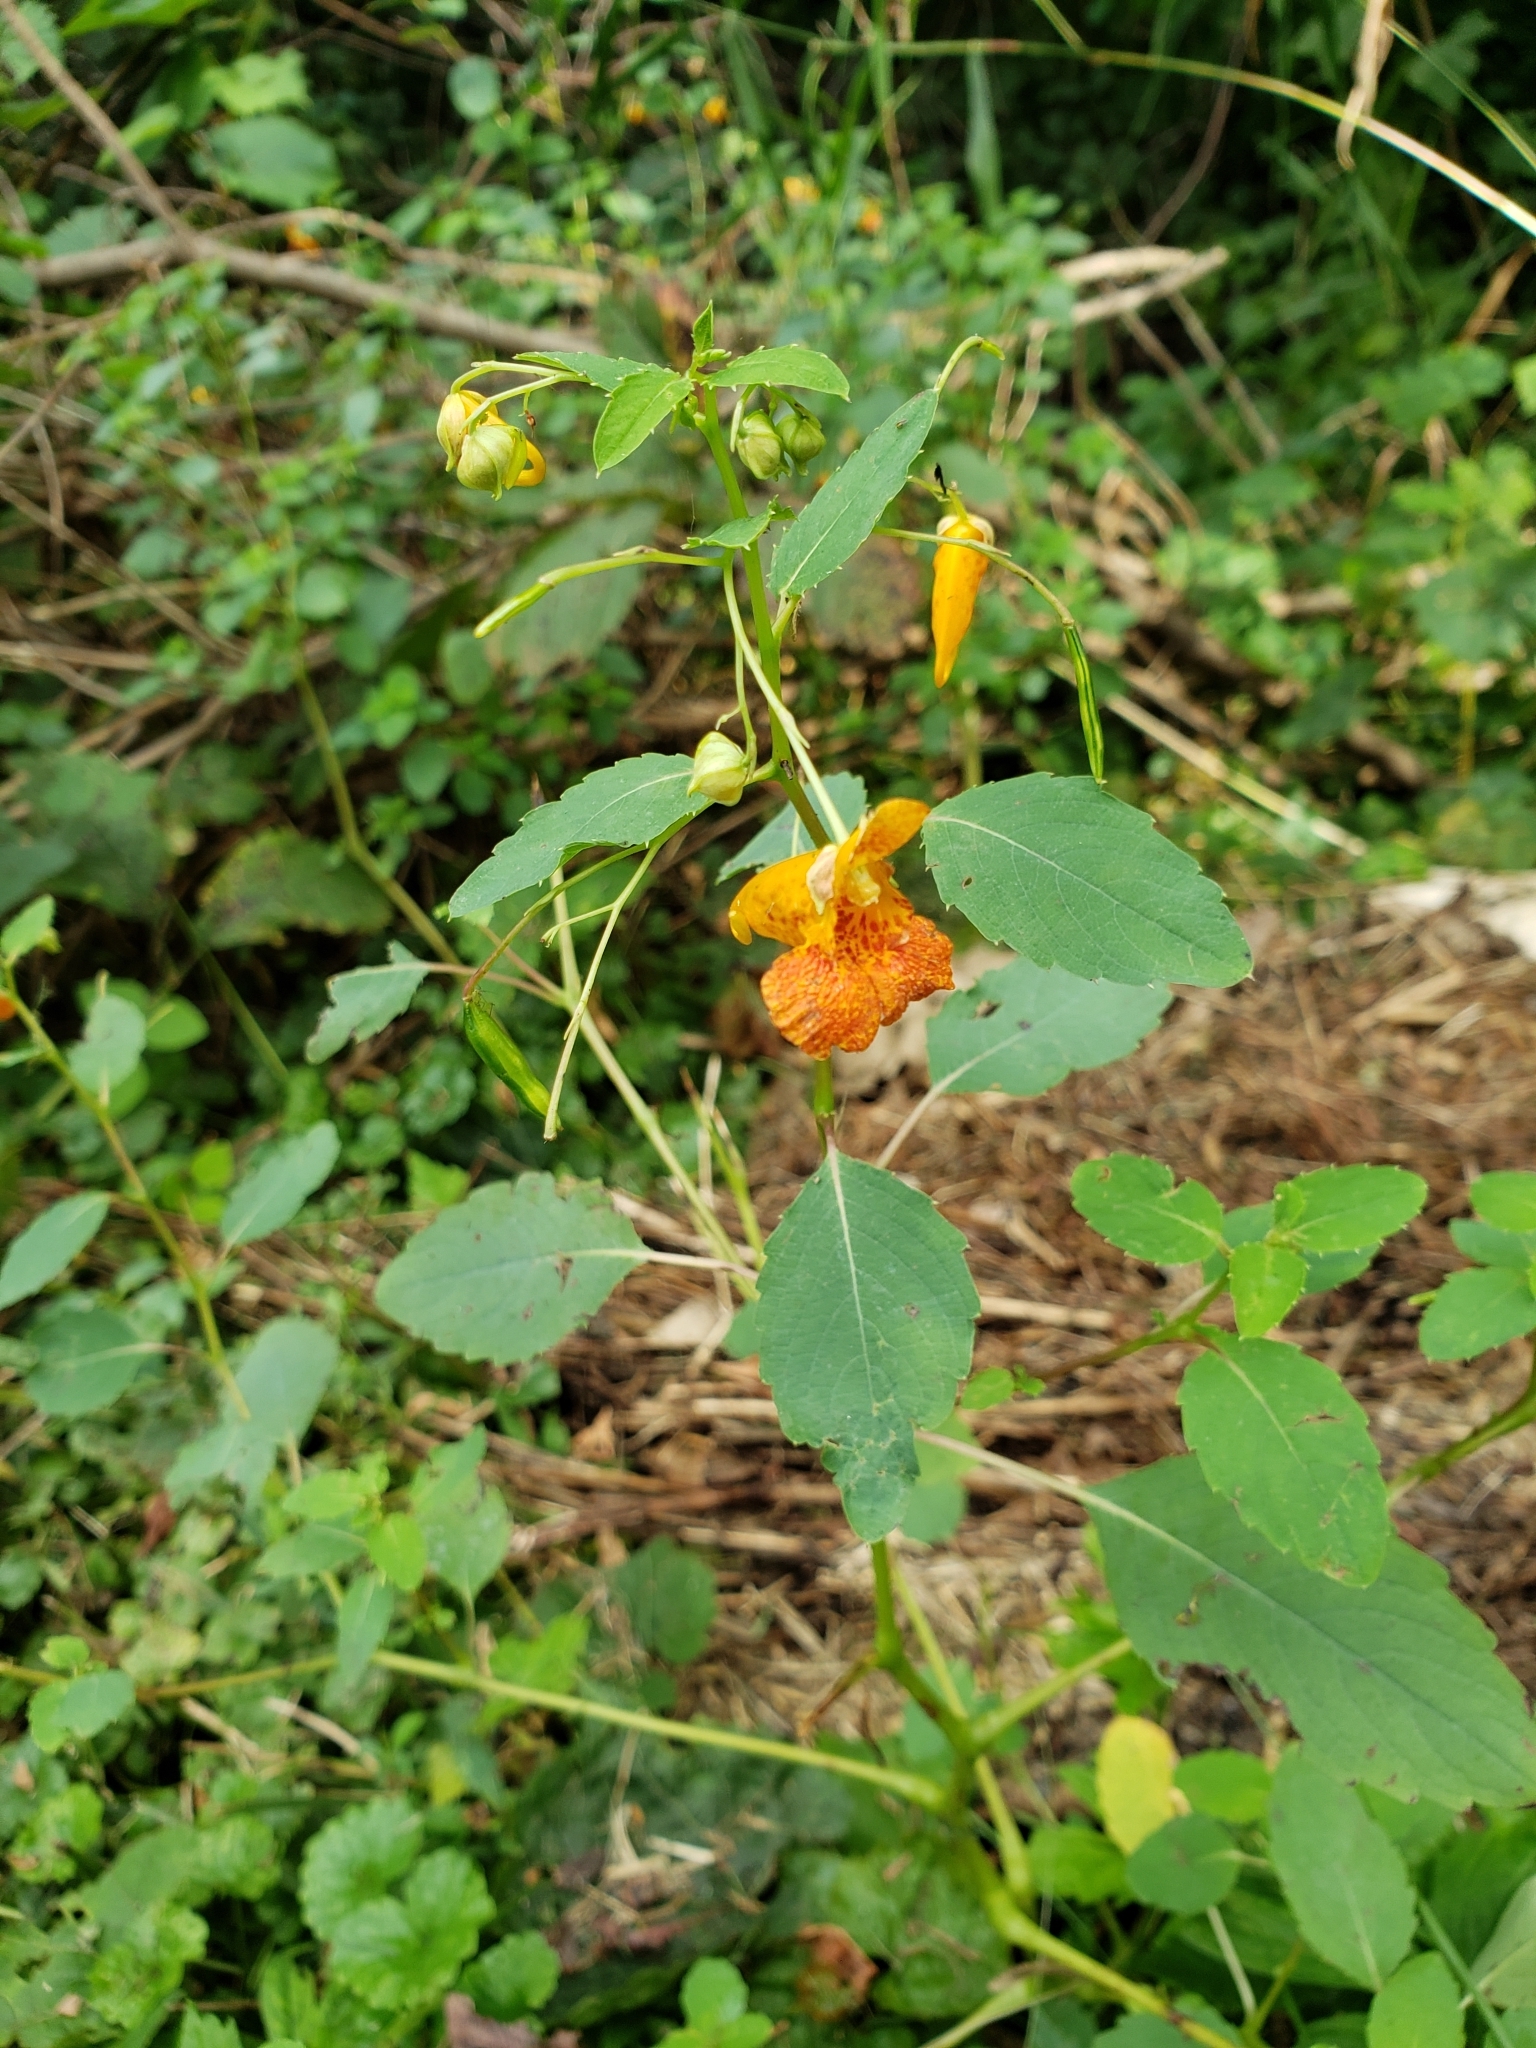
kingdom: Plantae
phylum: Tracheophyta
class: Magnoliopsida
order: Ericales
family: Balsaminaceae
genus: Impatiens
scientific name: Impatiens capensis
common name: Orange balsam
